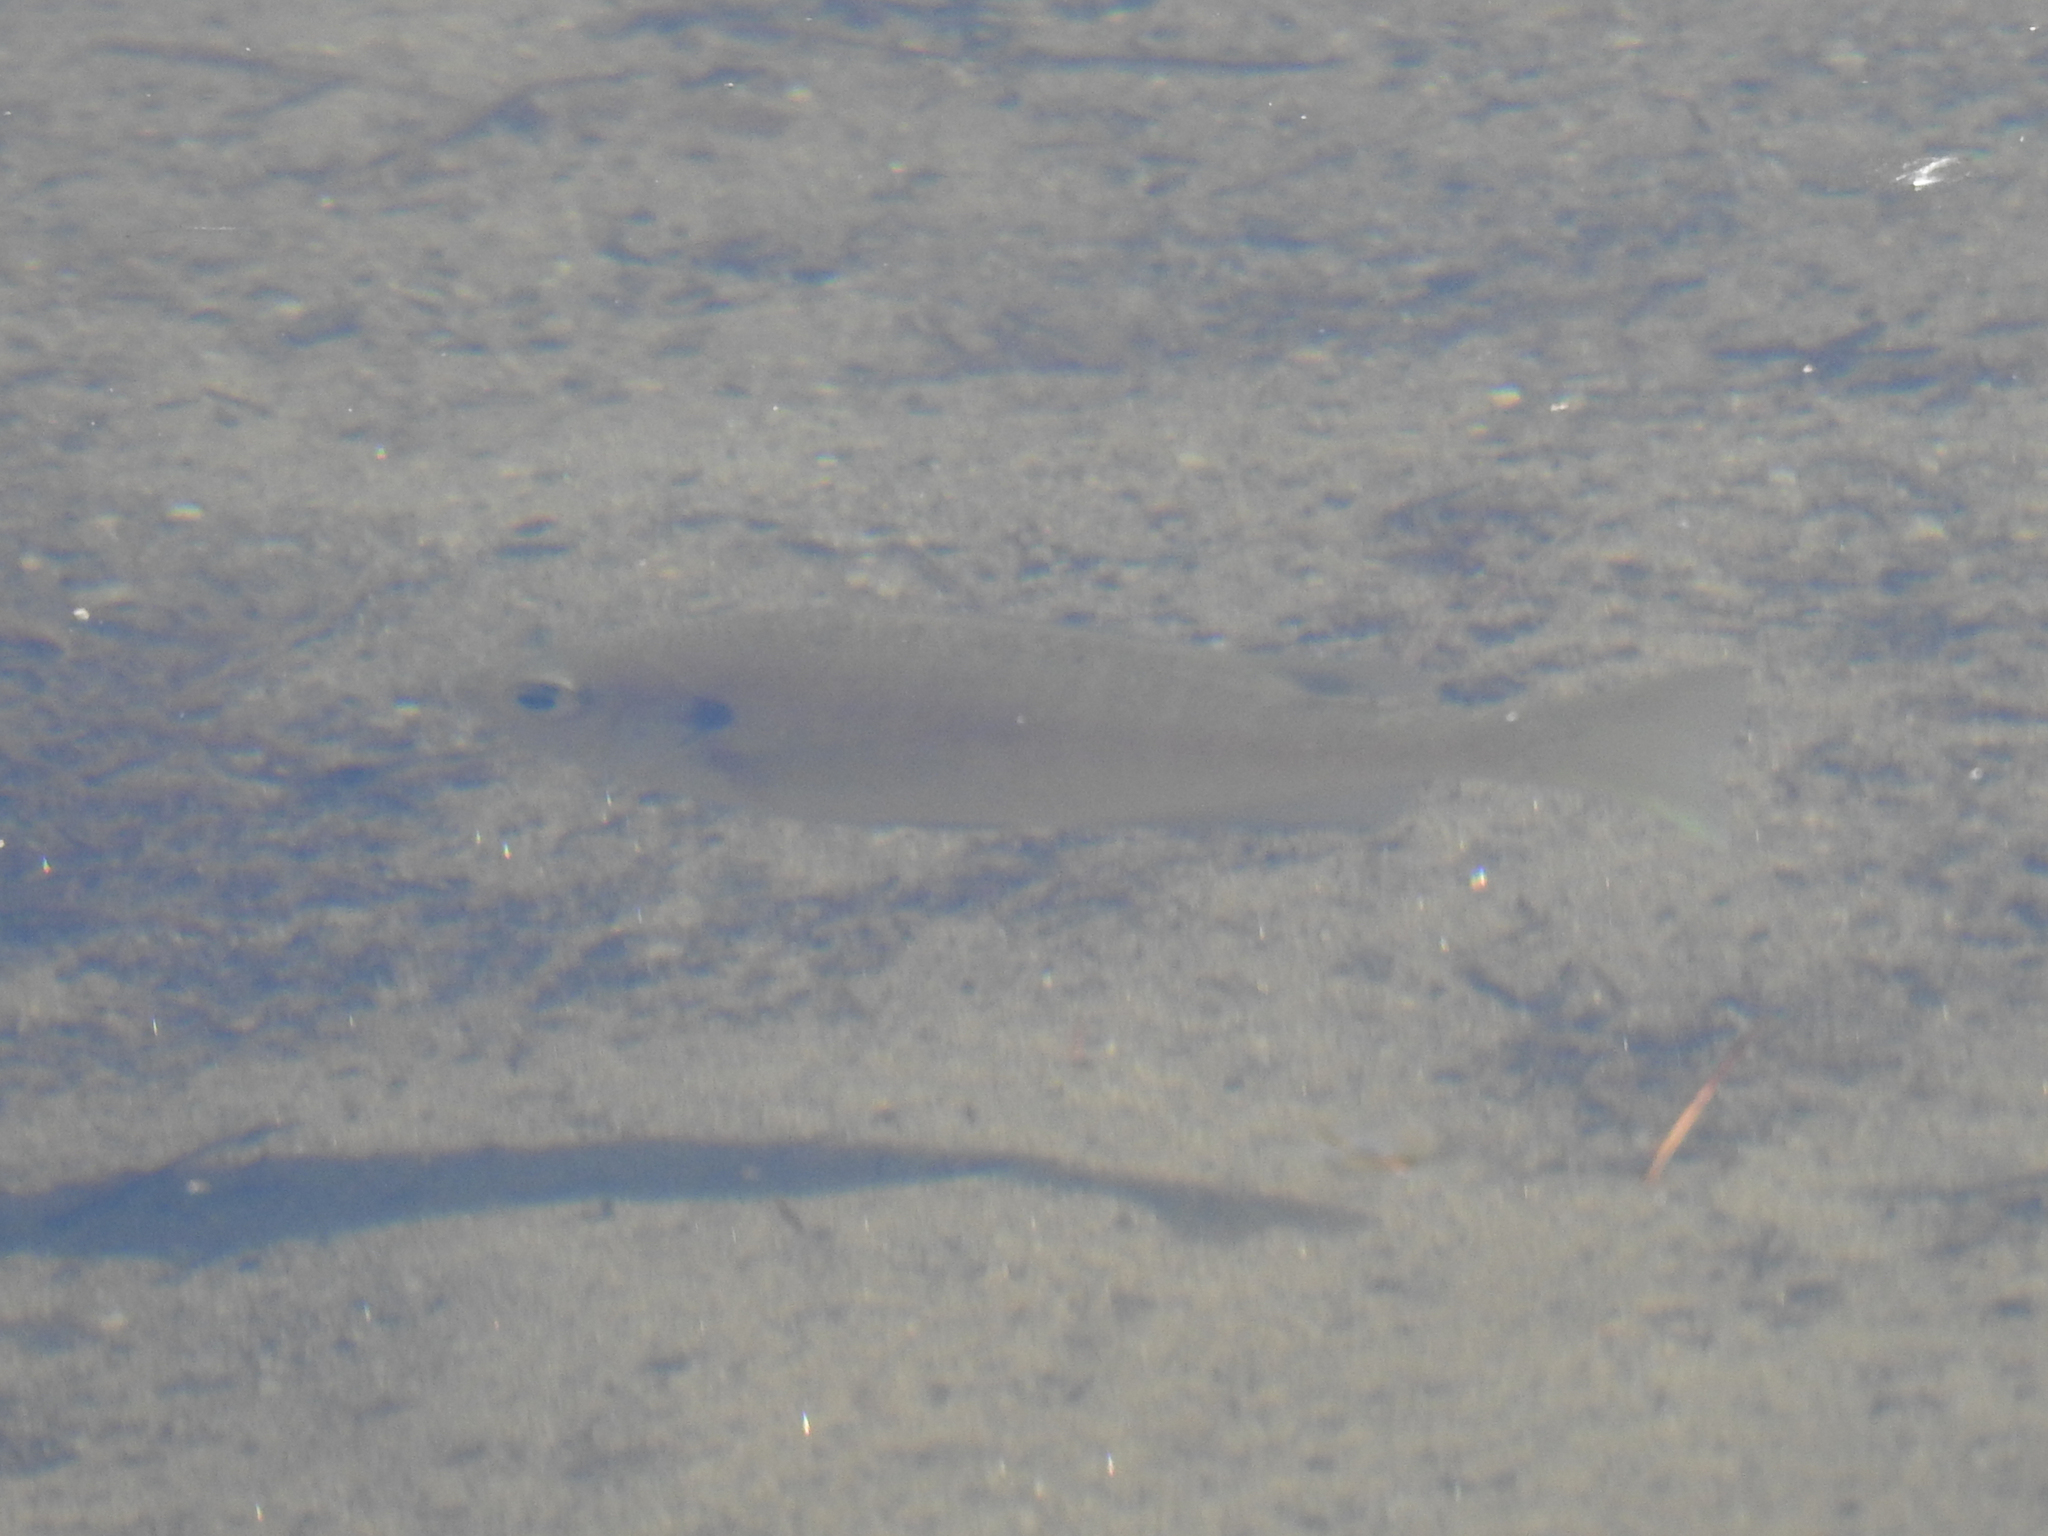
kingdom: Animalia
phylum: Chordata
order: Perciformes
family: Centrarchidae
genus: Lepomis
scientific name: Lepomis macrochirus
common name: Bluegill
